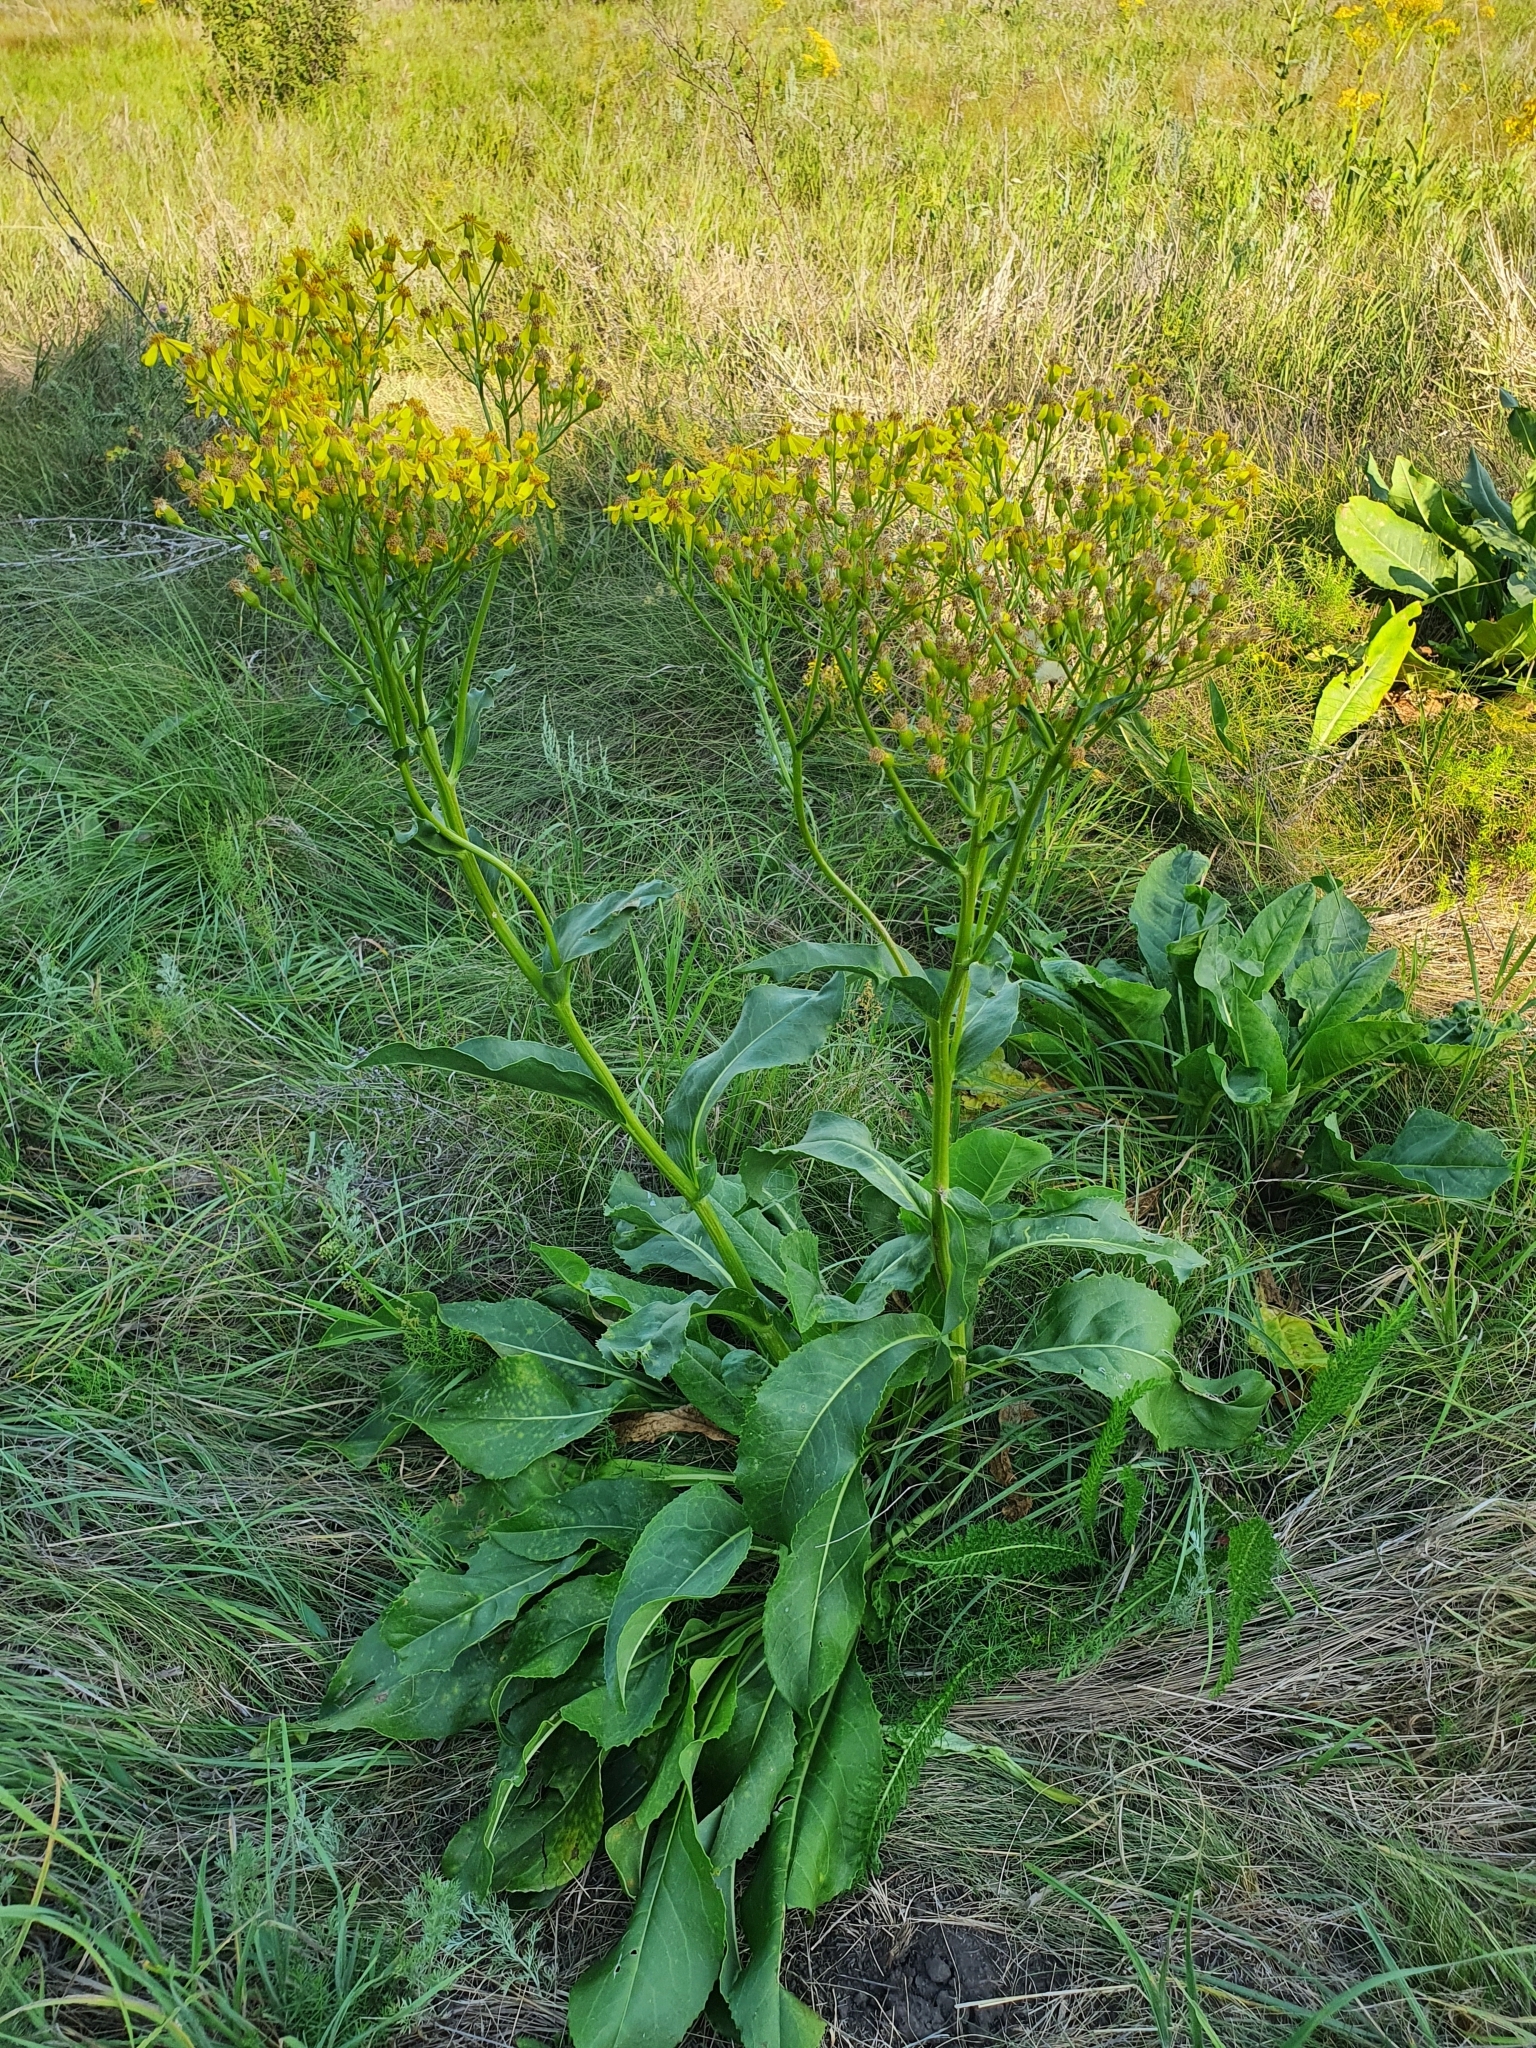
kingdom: Plantae
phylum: Tracheophyta
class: Magnoliopsida
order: Asterales
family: Asteraceae
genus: Senecio
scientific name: Senecio doria
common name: Golden ragwort
